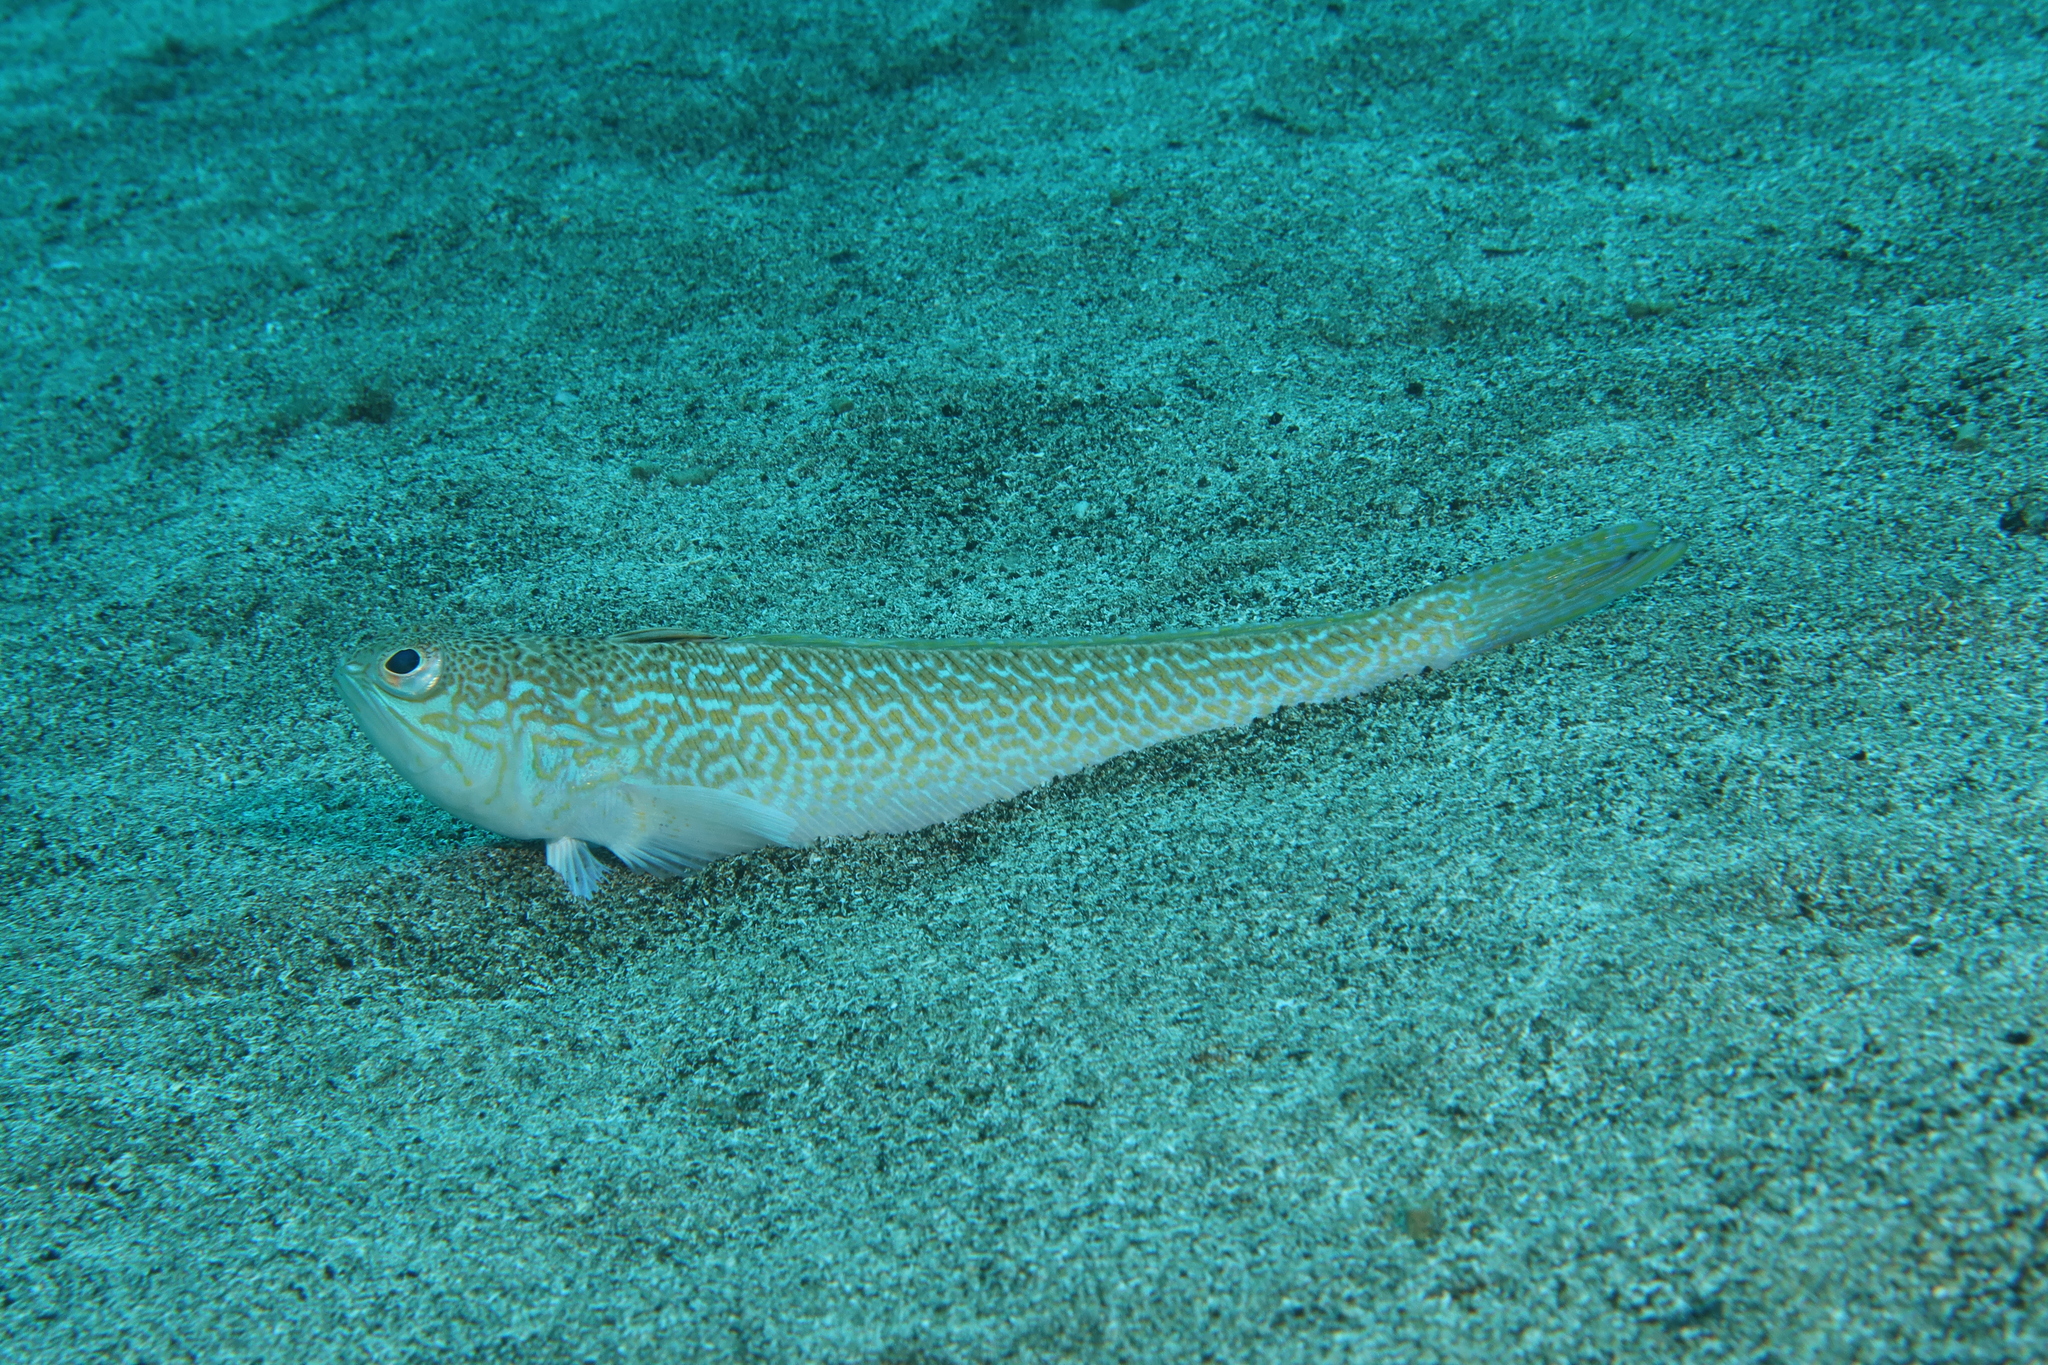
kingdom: Animalia
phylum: Chordata
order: Perciformes
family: Trachinidae
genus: Trachinus
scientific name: Trachinus draco
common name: Greater weever
